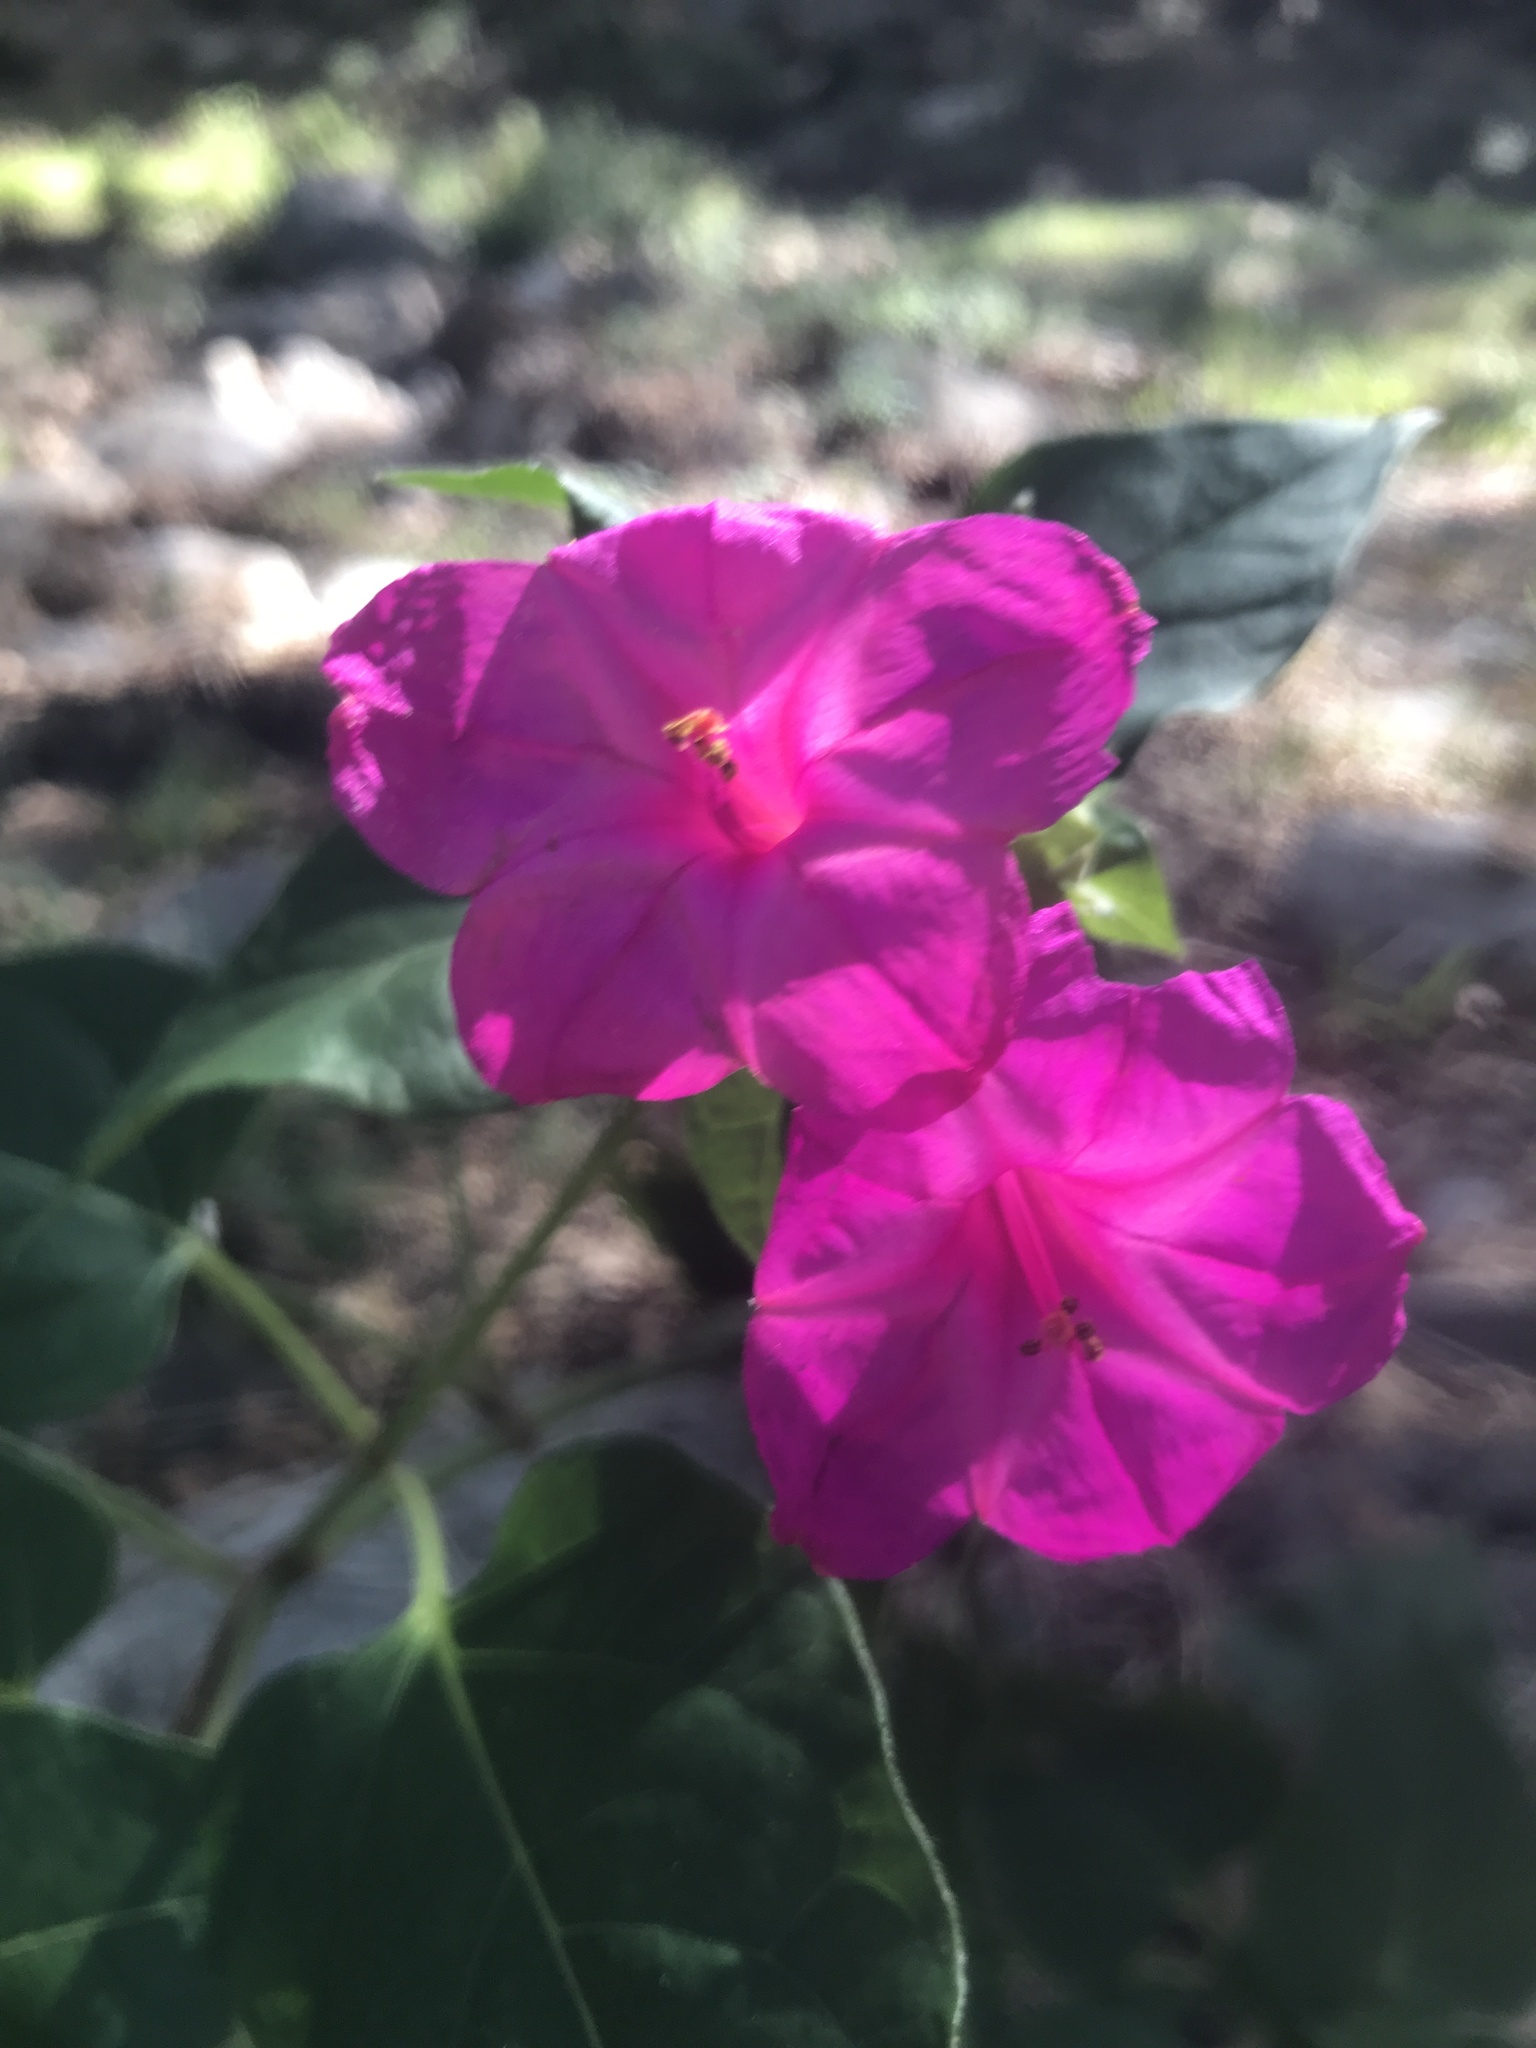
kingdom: Plantae
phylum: Tracheophyta
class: Magnoliopsida
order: Caryophyllales
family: Nyctaginaceae
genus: Mirabilis
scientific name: Mirabilis jalapa
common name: Marvel-of-peru
